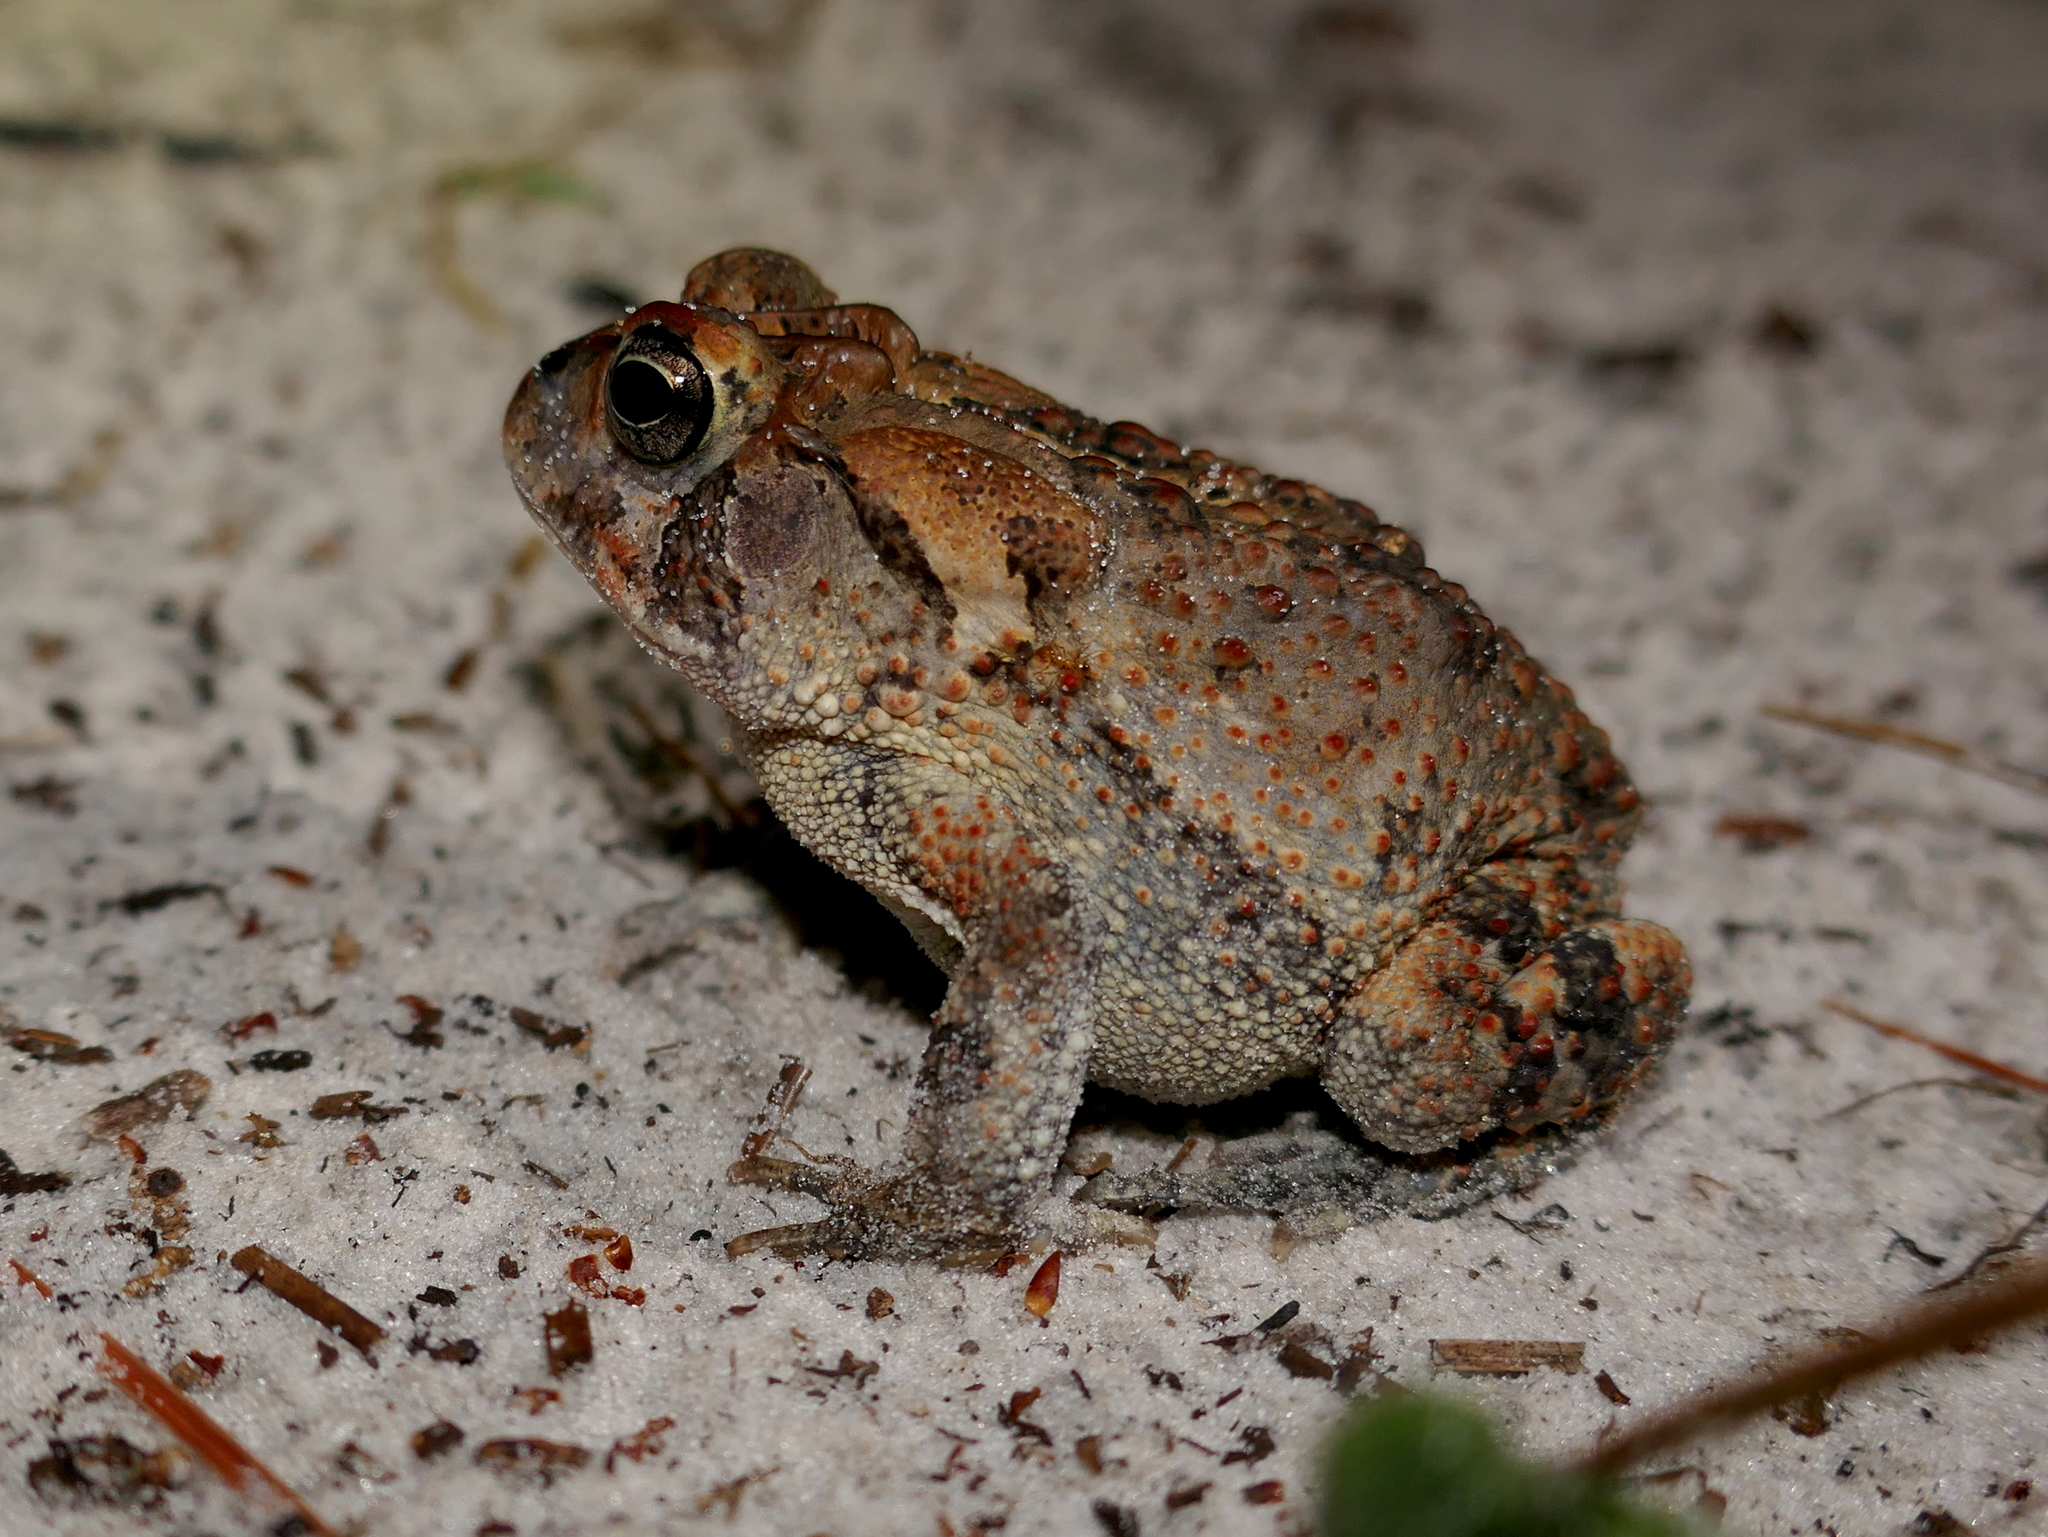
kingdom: Animalia
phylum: Chordata
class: Amphibia
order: Anura
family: Bufonidae
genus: Anaxyrus
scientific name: Anaxyrus terrestris
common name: Southern toad
